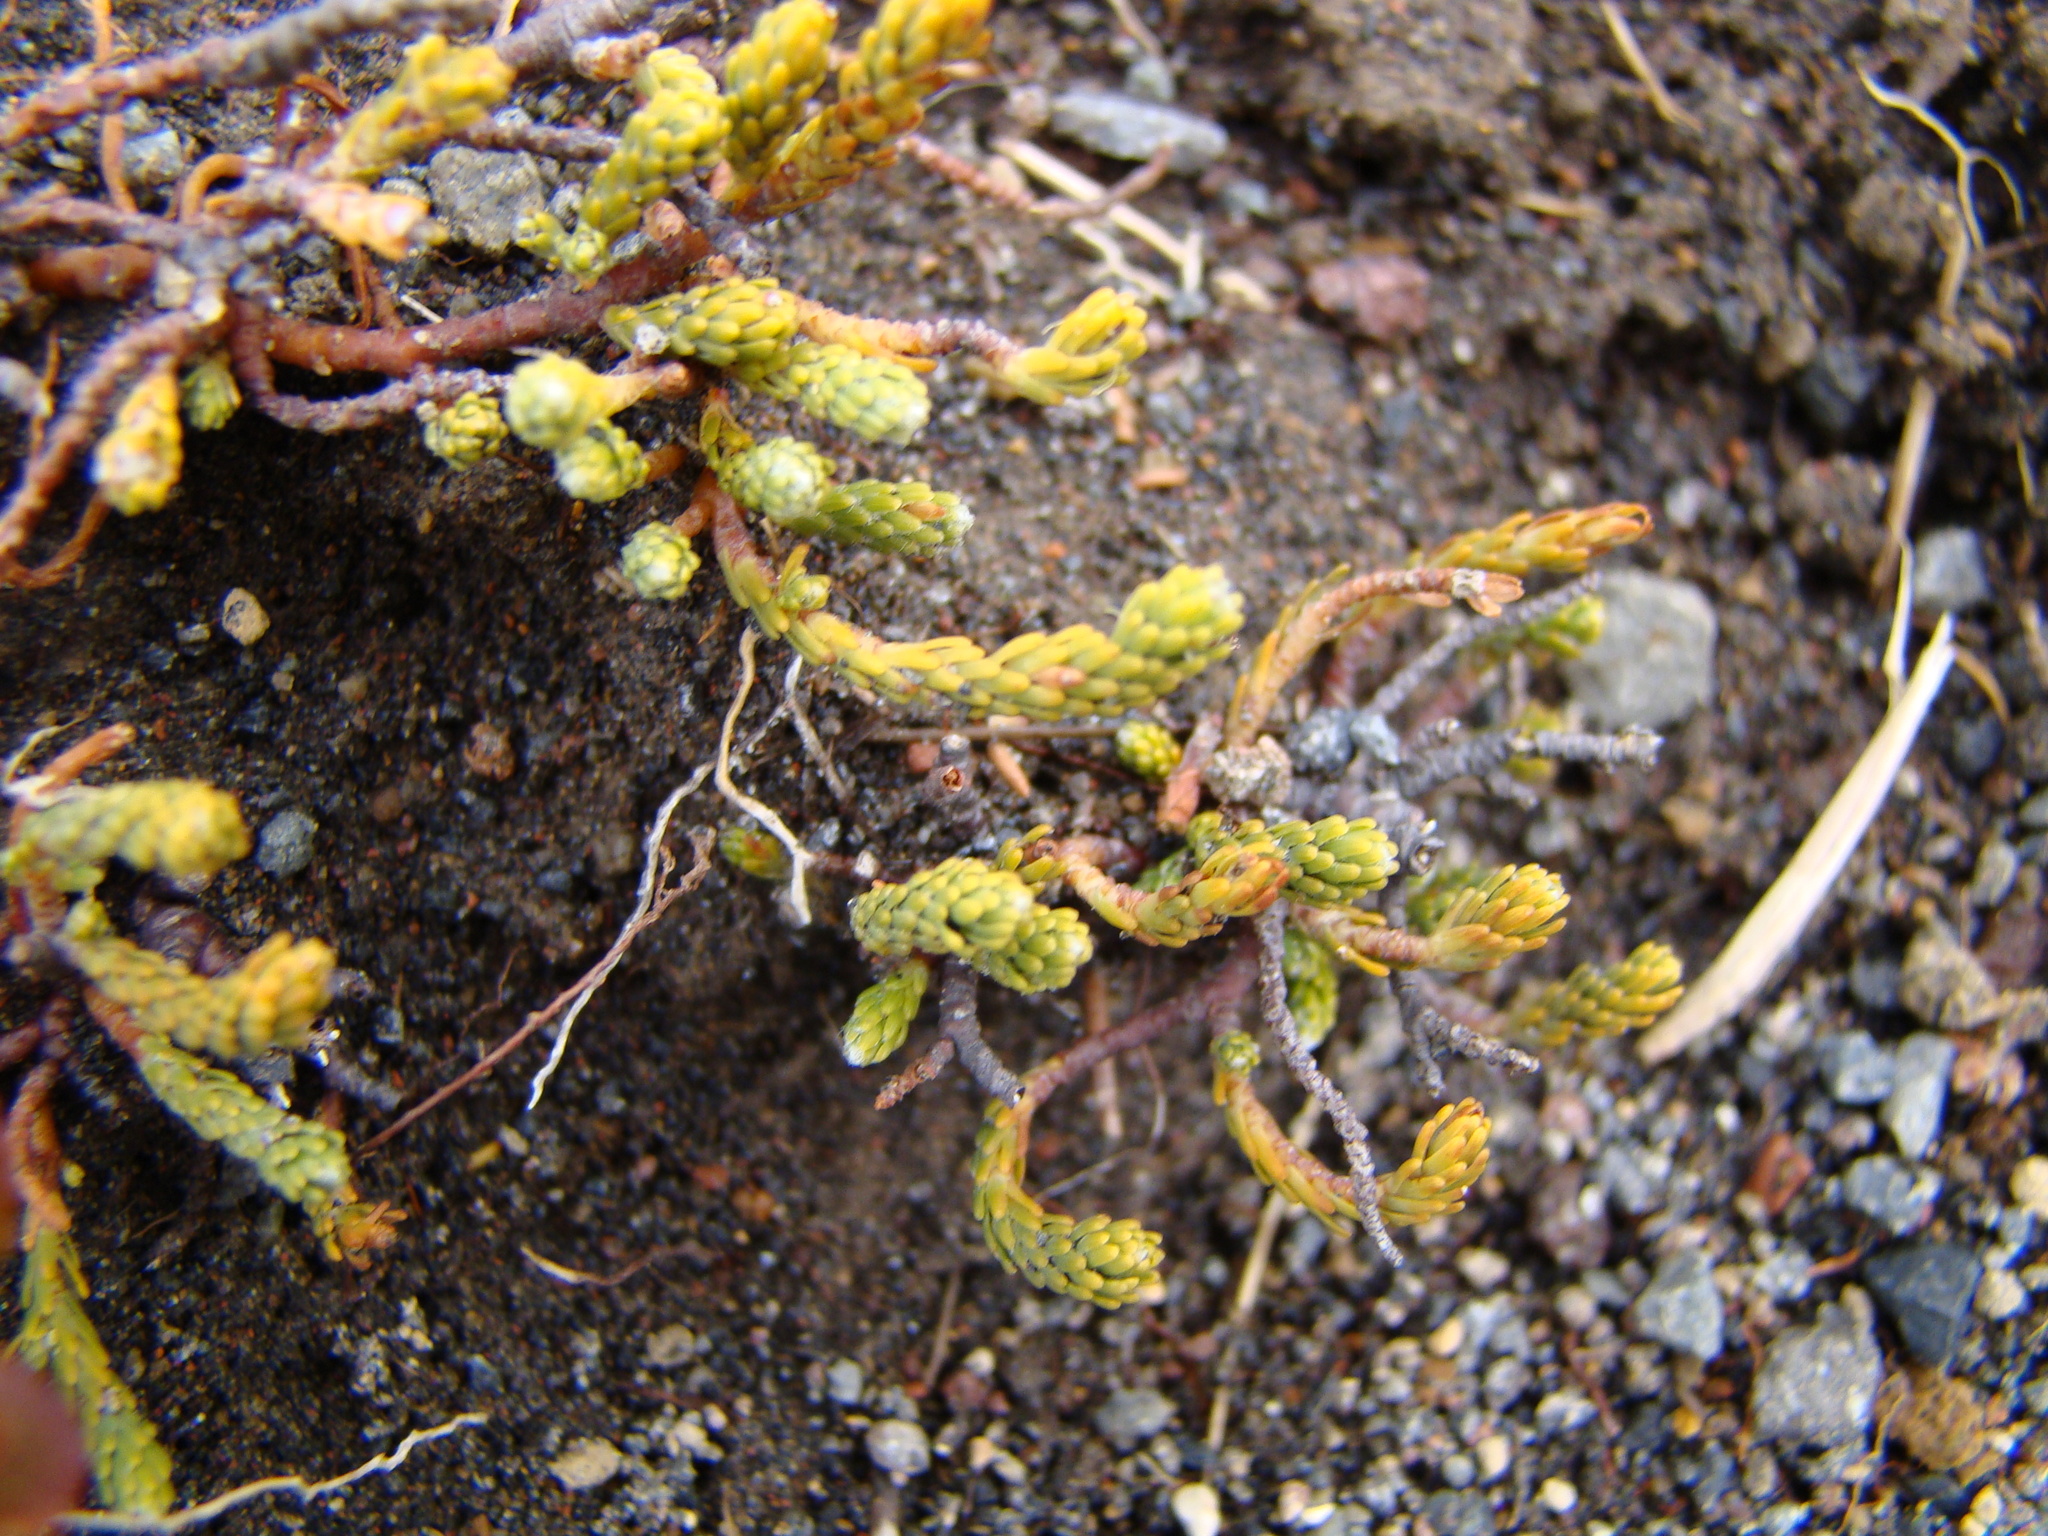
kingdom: Plantae
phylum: Tracheophyta
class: Magnoliopsida
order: Malvales
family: Thymelaeaceae
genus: Kelleria
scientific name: Kelleria dieffenbachii
